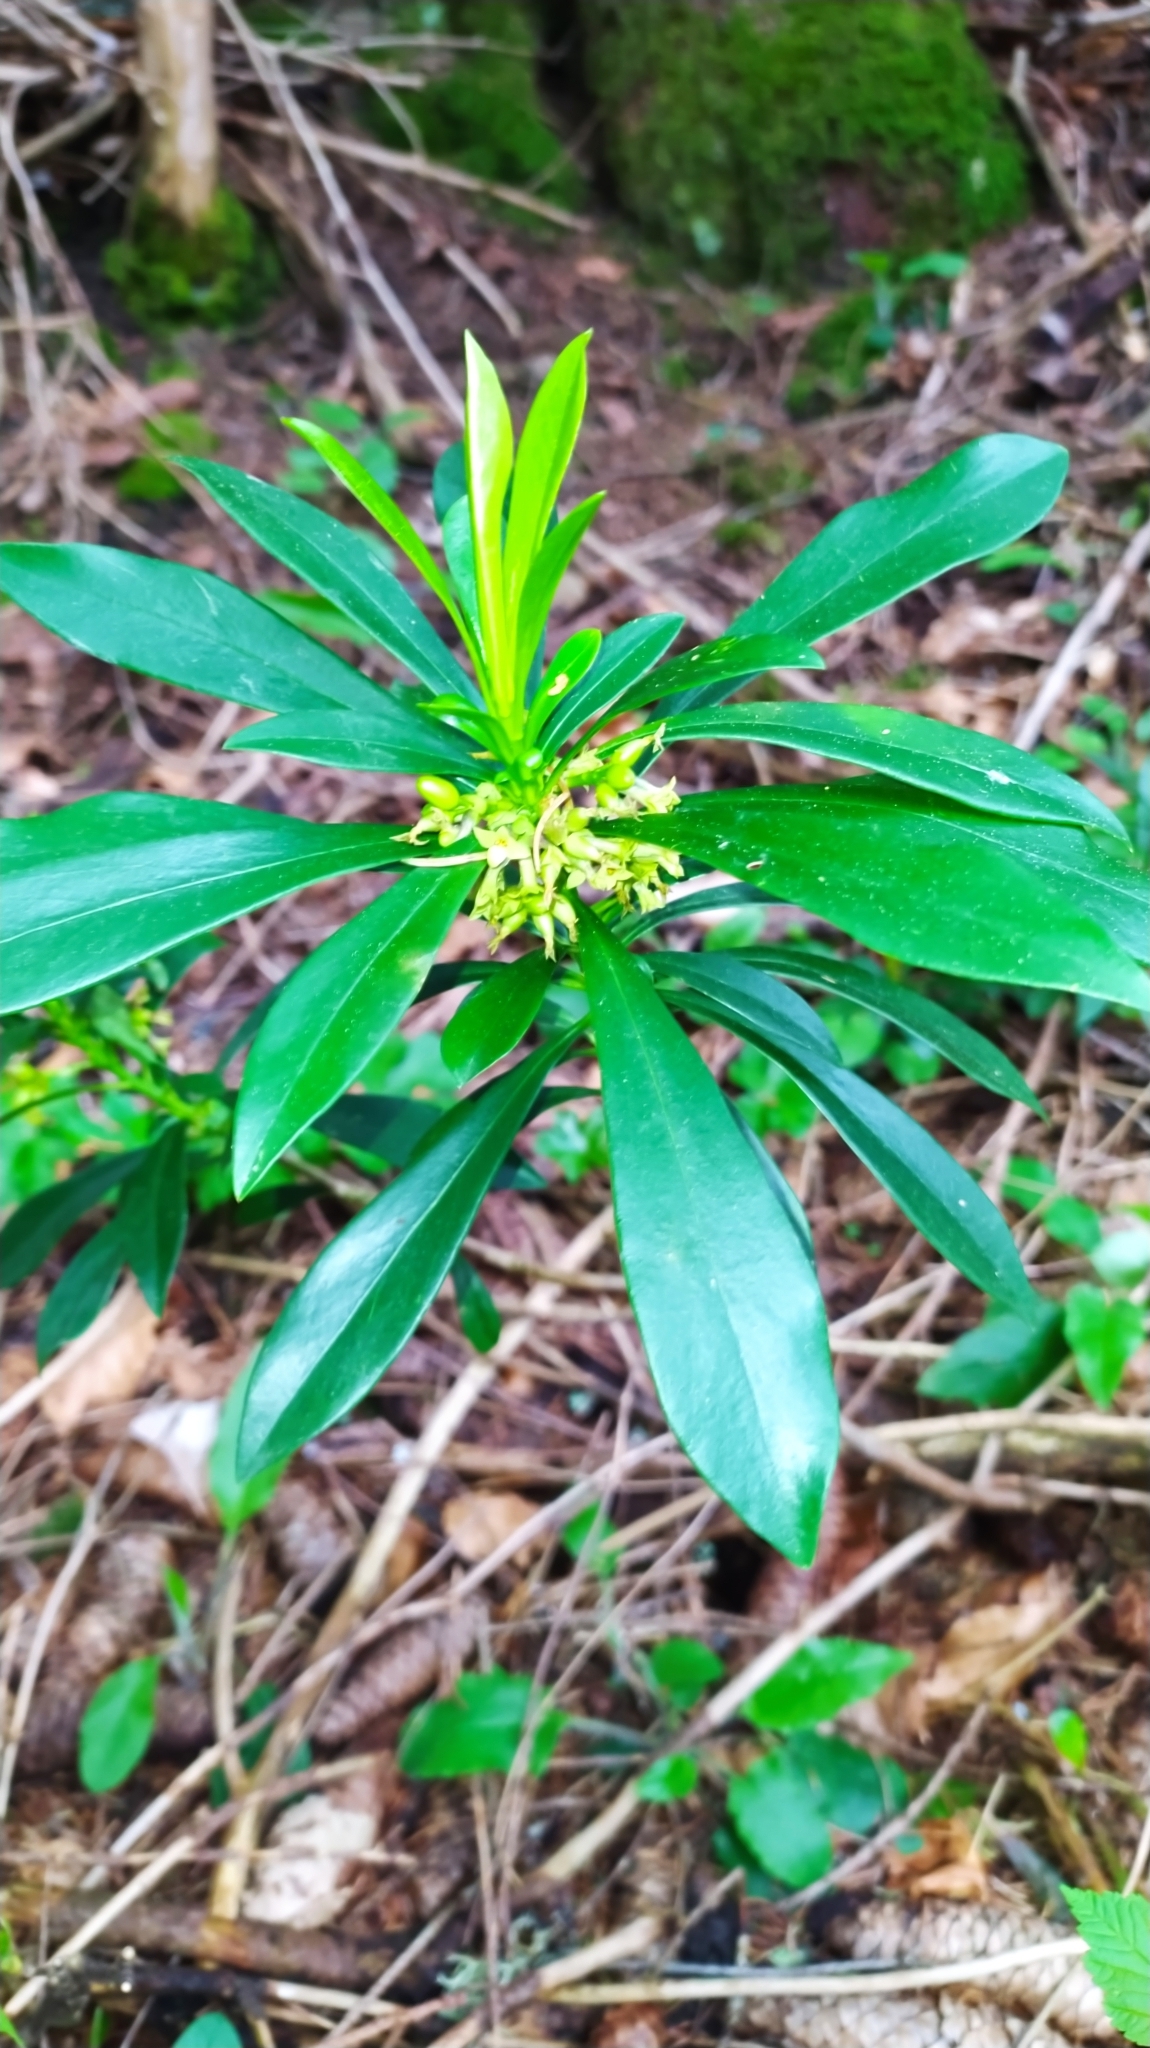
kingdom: Plantae
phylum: Tracheophyta
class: Magnoliopsida
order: Malvales
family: Thymelaeaceae
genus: Daphne
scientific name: Daphne laureola
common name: Spurge-laurel
